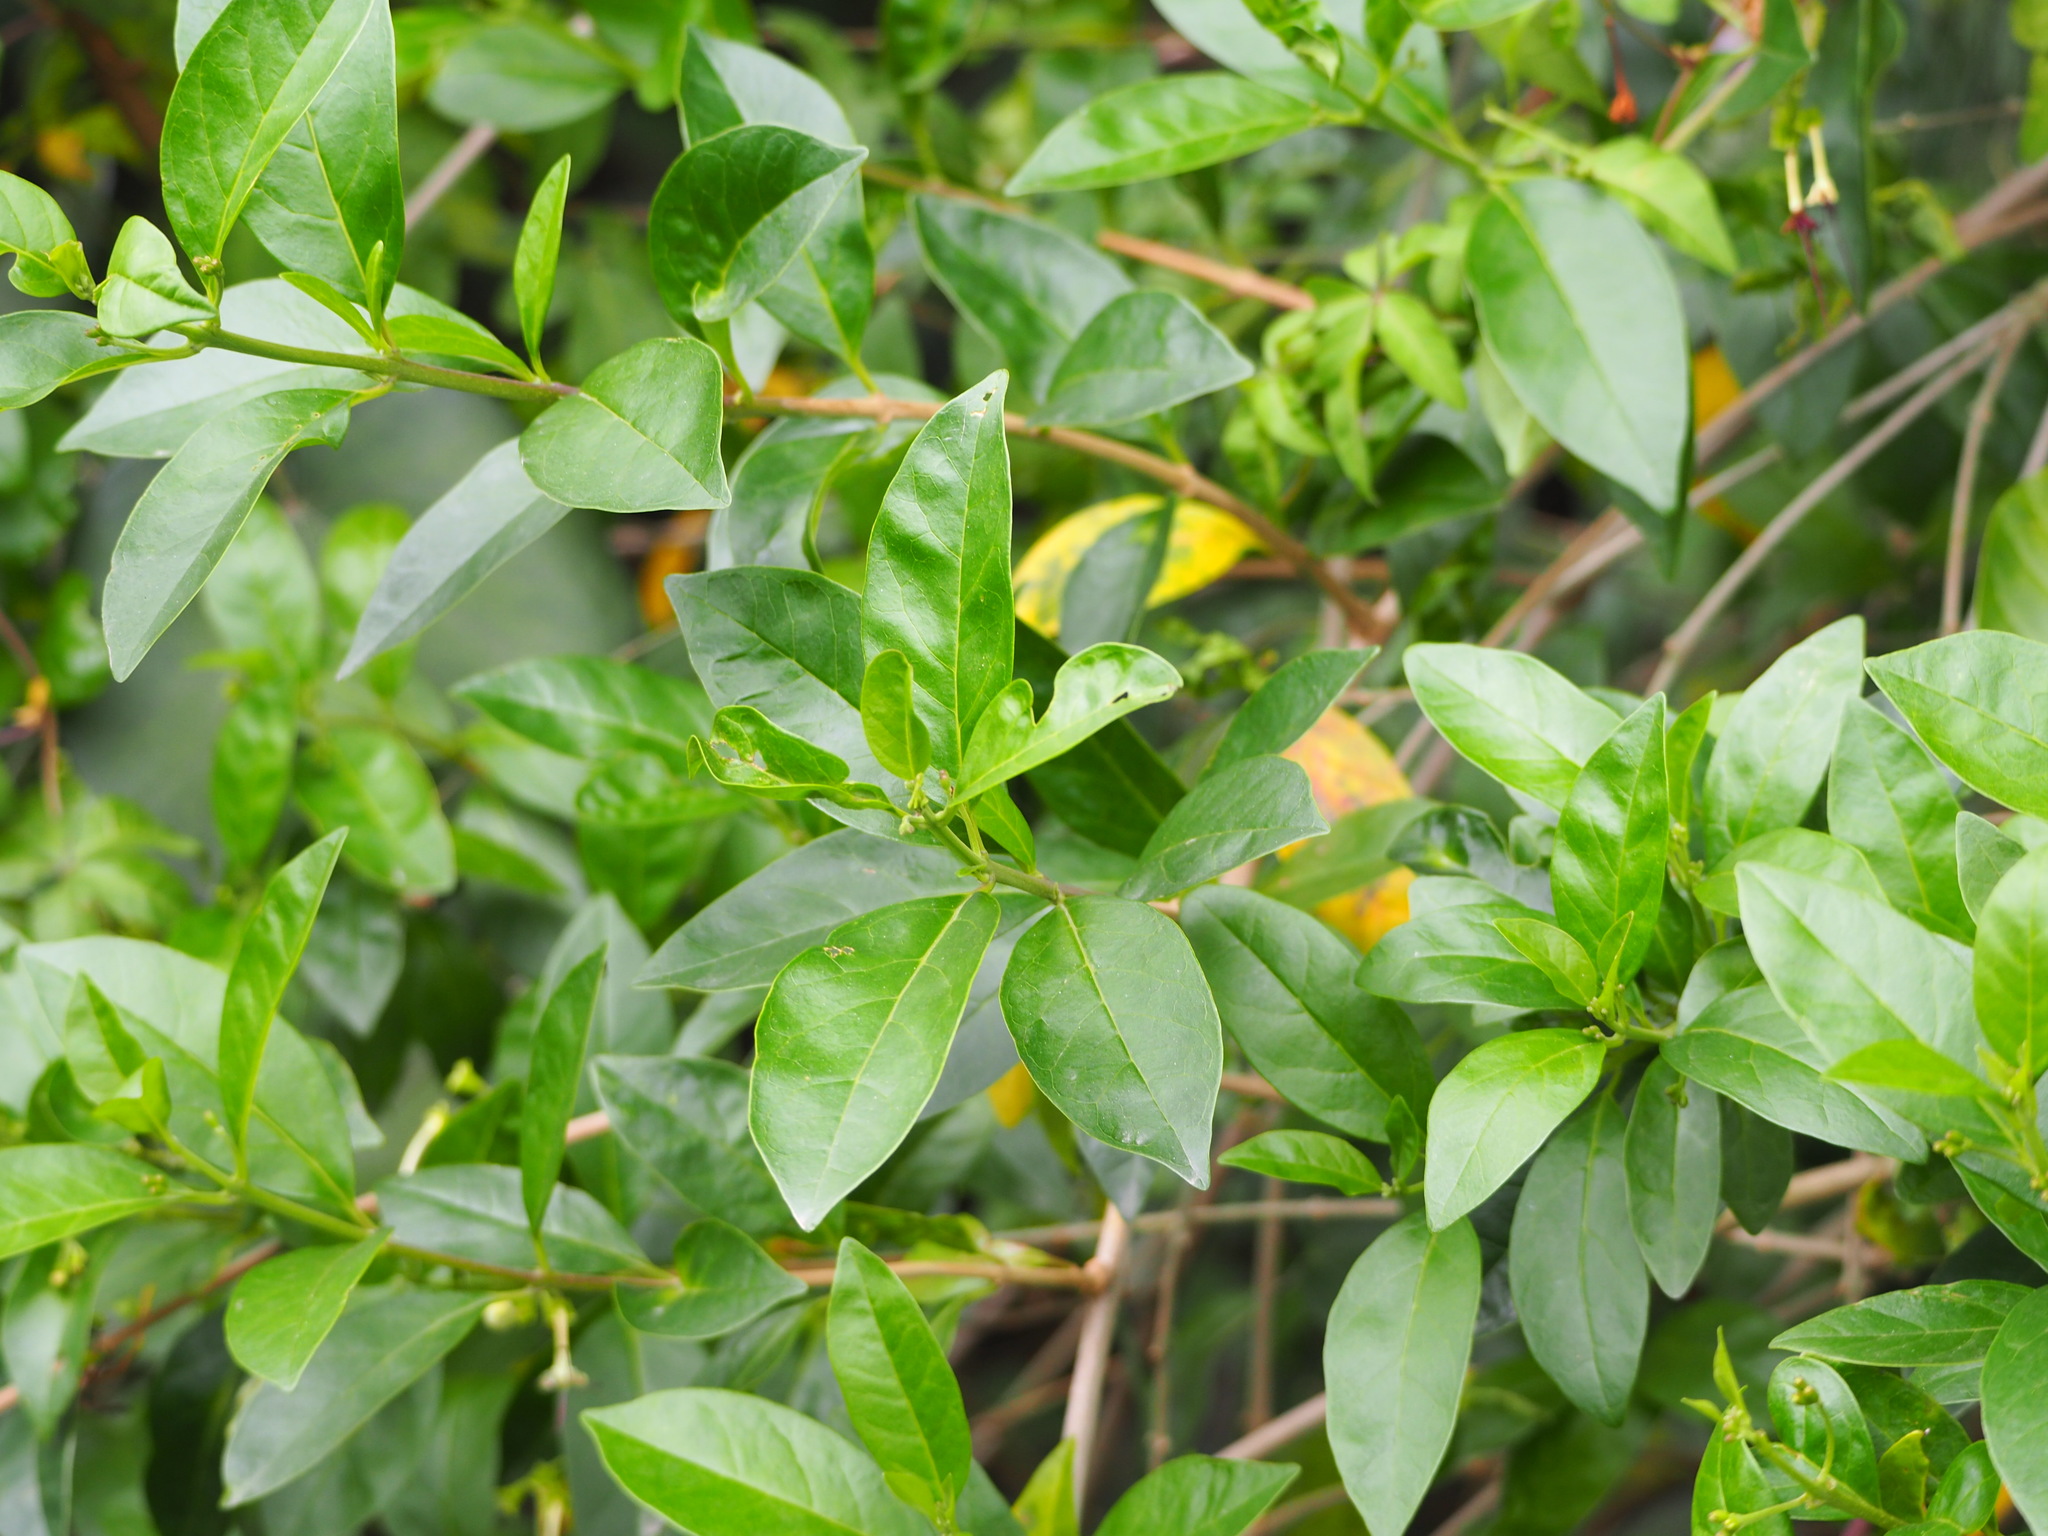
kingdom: Plantae
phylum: Tracheophyta
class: Magnoliopsida
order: Lamiales
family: Lamiaceae
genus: Volkameria
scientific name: Volkameria inermis
